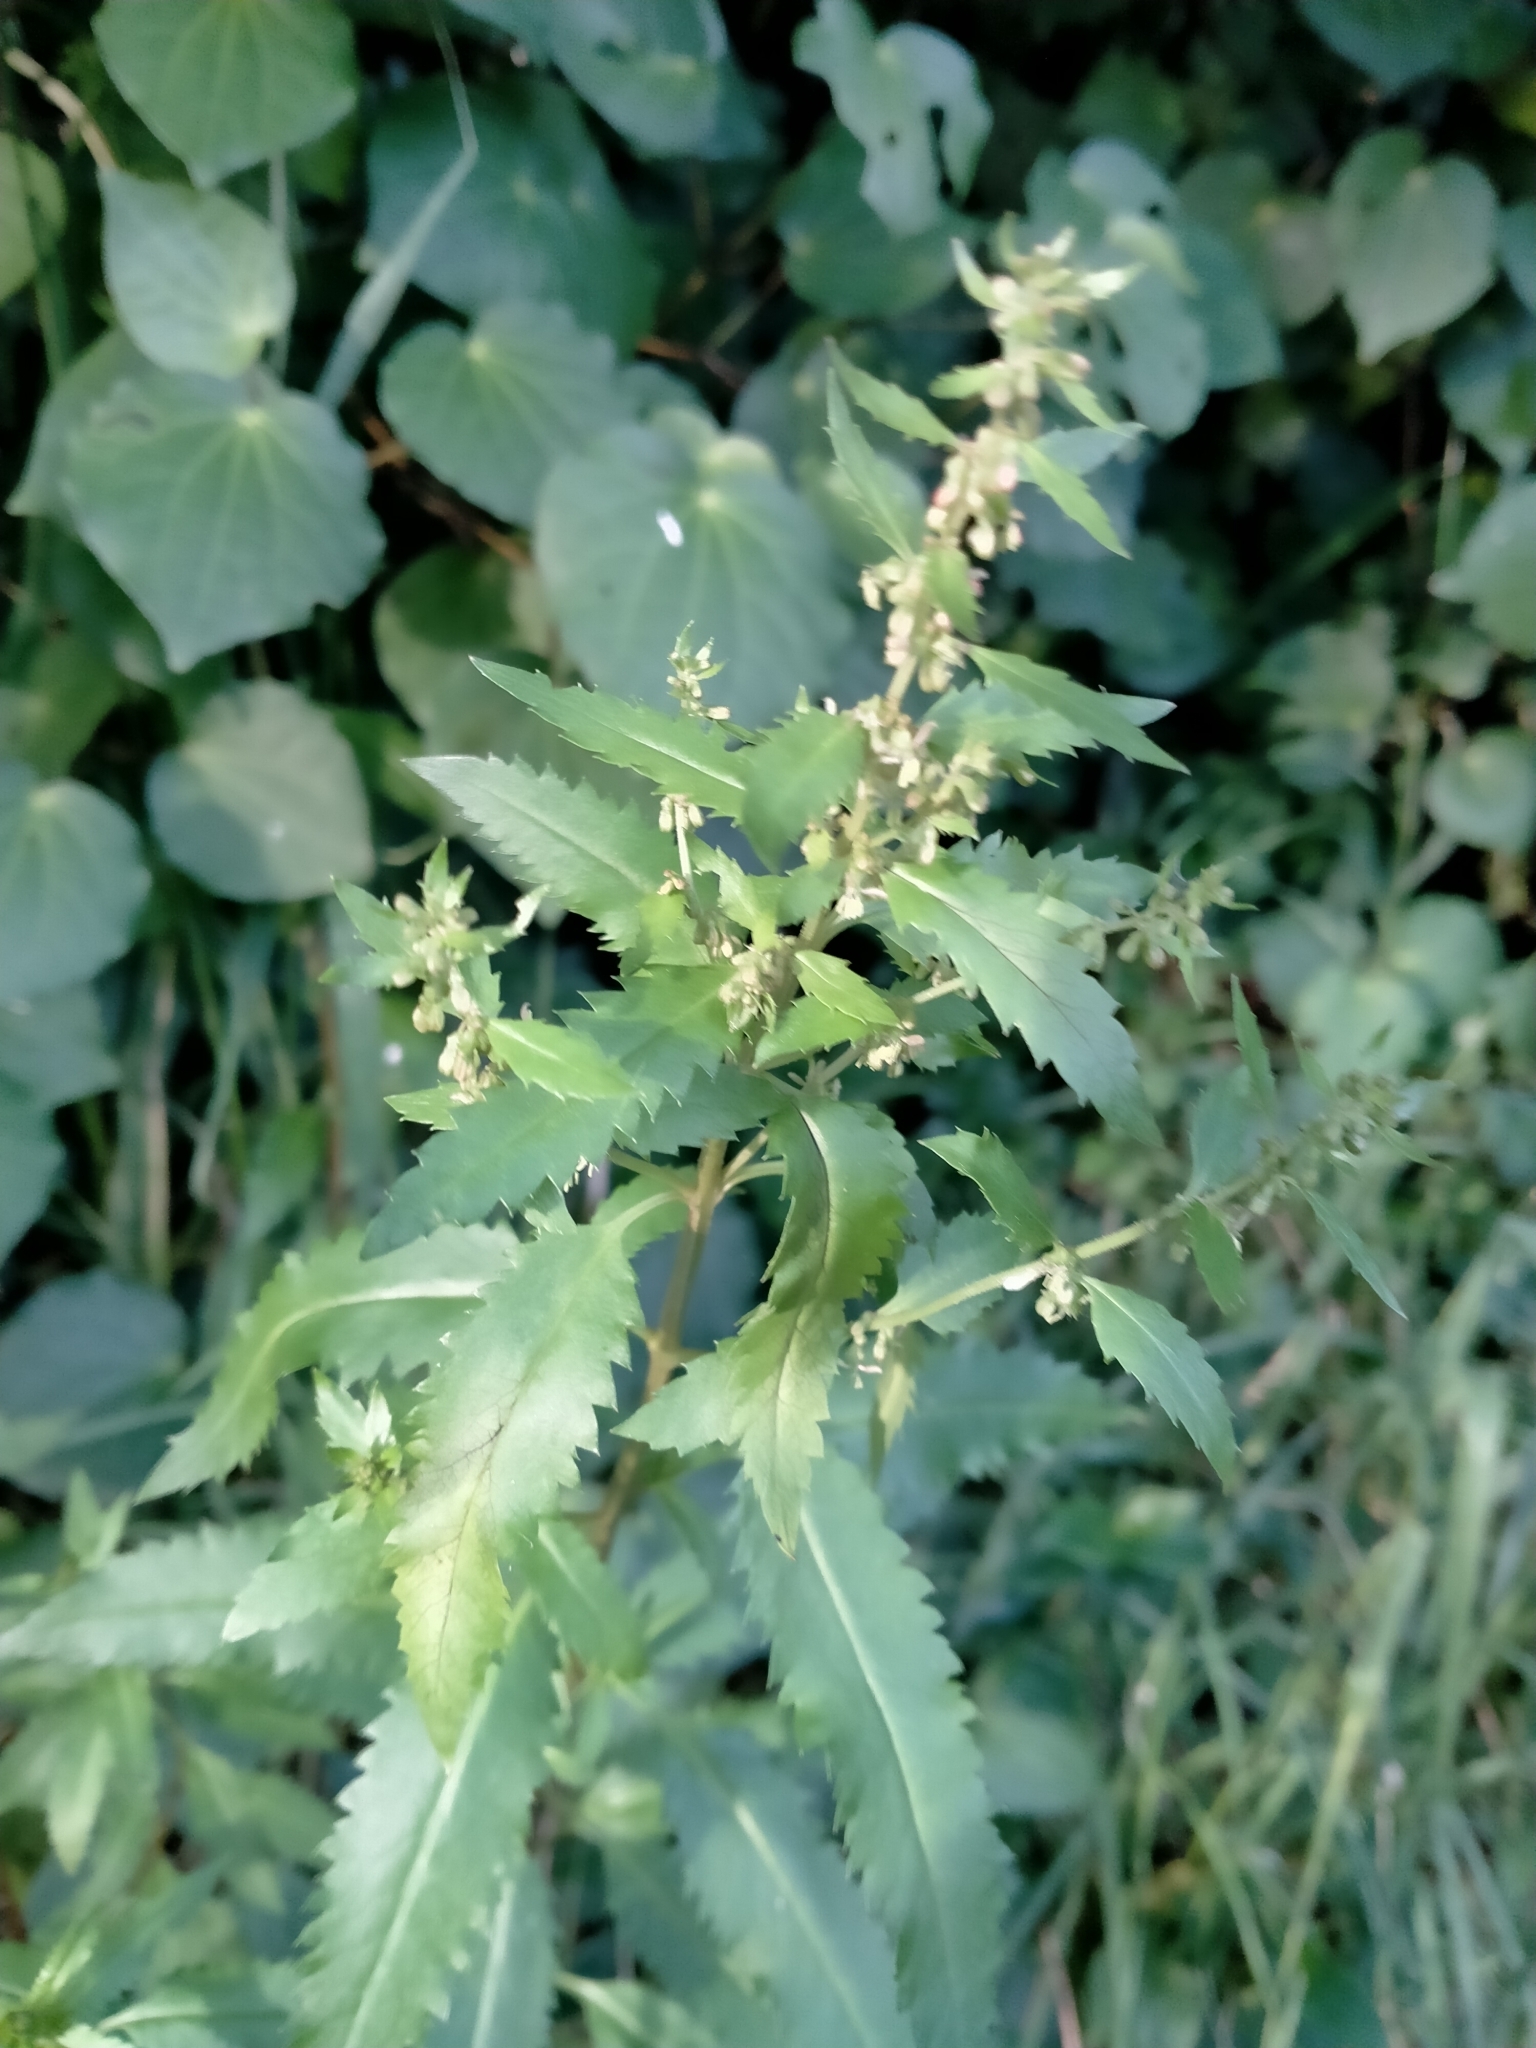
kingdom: Plantae
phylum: Tracheophyta
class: Magnoliopsida
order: Saxifragales
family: Haloragaceae
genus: Haloragis
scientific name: Haloragis erecta
